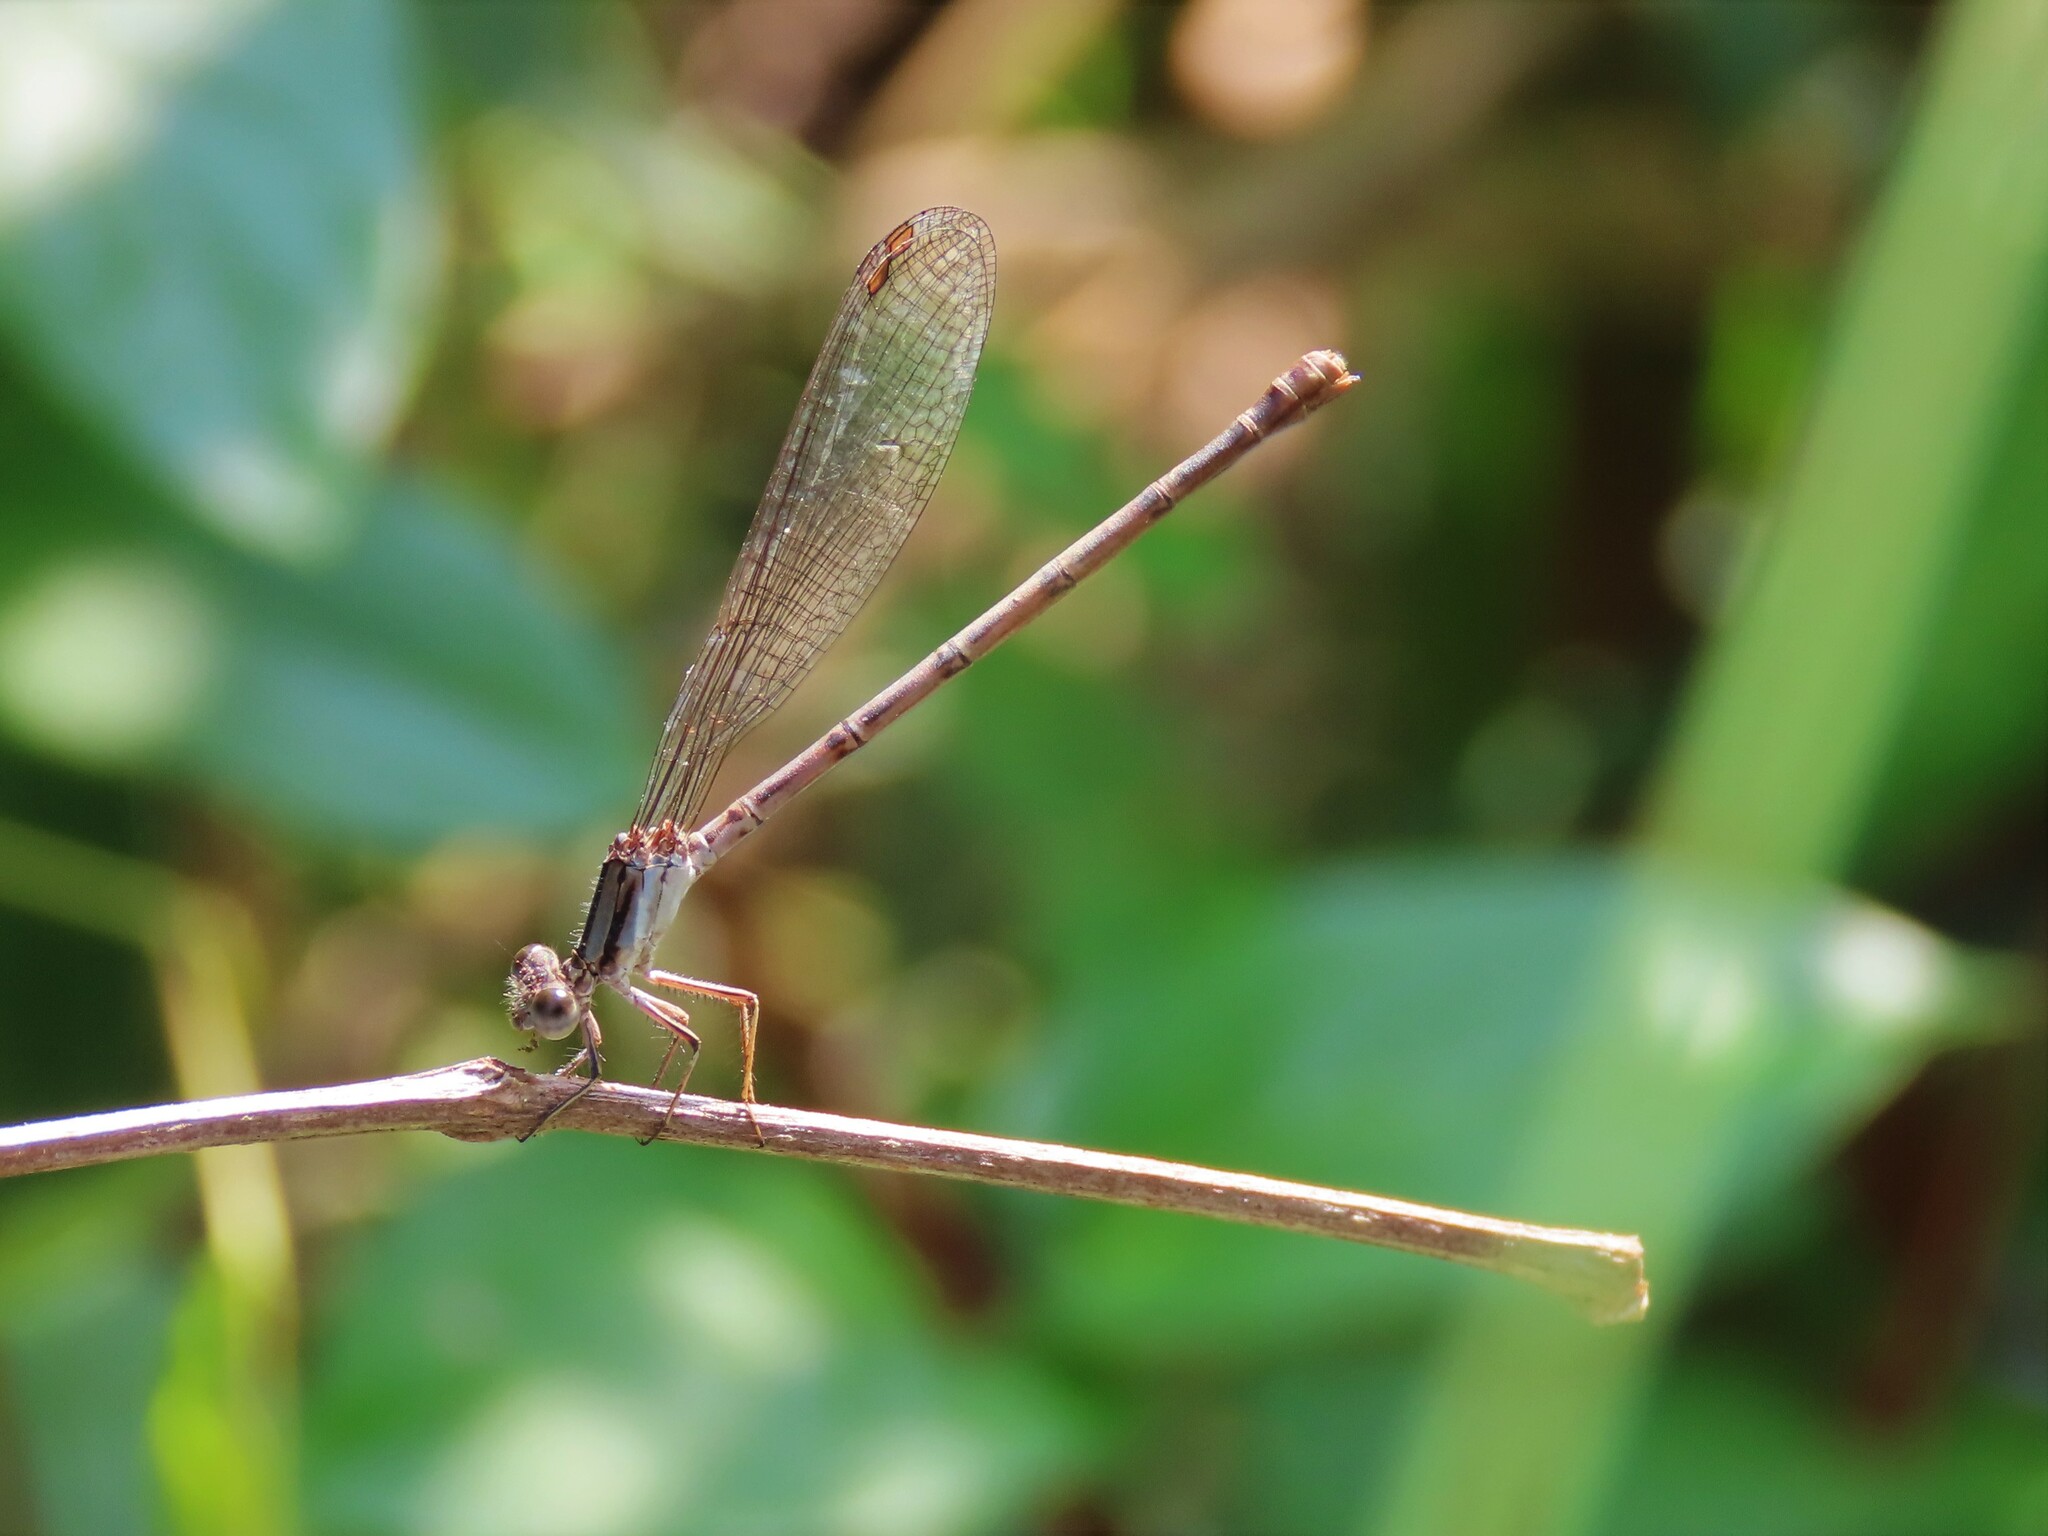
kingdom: Animalia
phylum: Arthropoda
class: Insecta
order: Odonata
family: Coenagrionidae
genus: Argia
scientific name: Argia fumipennis
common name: Variable dancer
